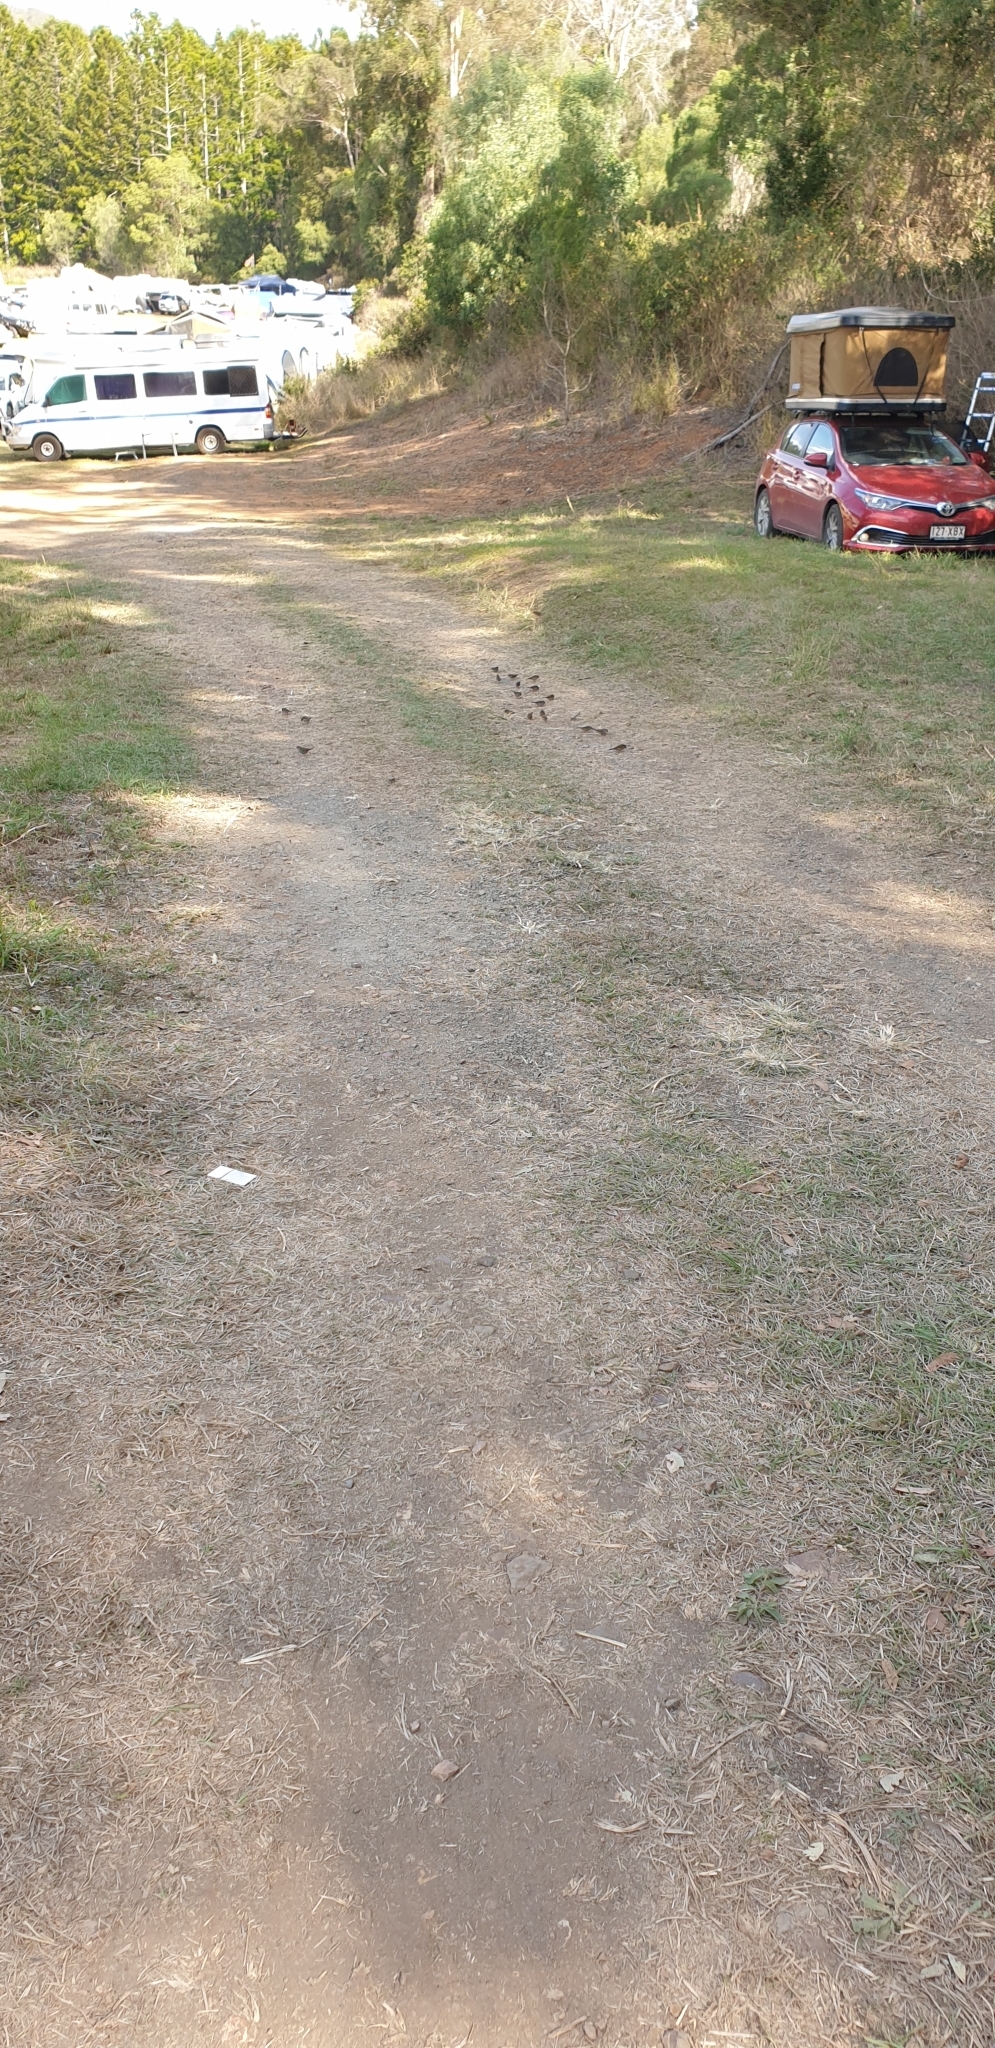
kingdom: Animalia
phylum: Chordata
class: Aves
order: Passeriformes
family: Estrildidae
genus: Neochmia
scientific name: Neochmia temporalis
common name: Red-browed finch
